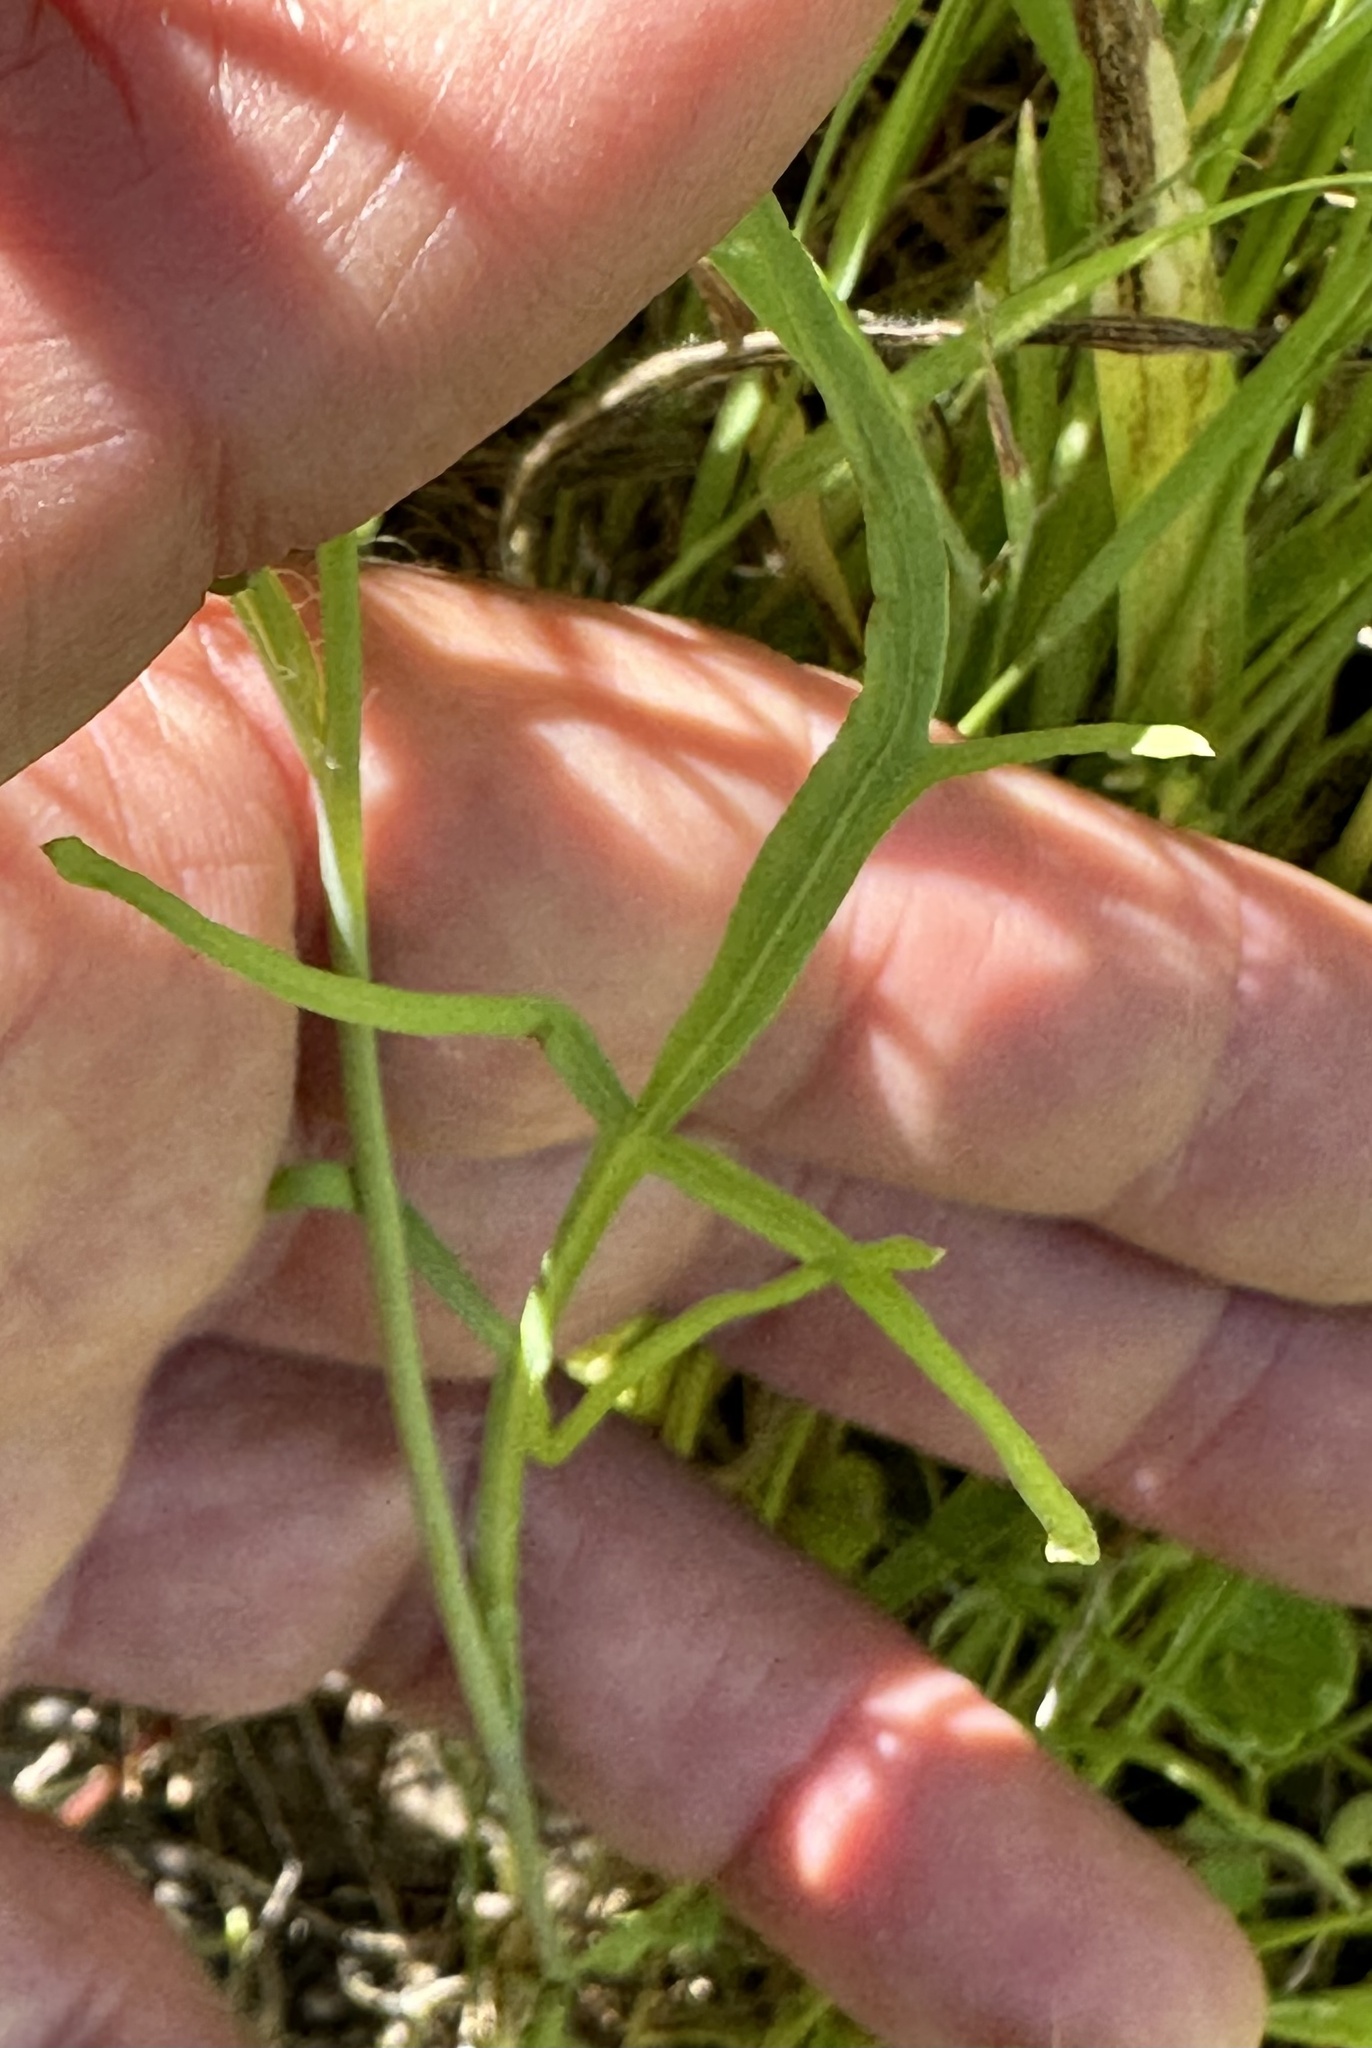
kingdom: Plantae
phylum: Tracheophyta
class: Magnoliopsida
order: Ranunculales
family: Papaveraceae
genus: Stylomecon
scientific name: Stylomecon heterophylla
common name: Flaming-poppy
